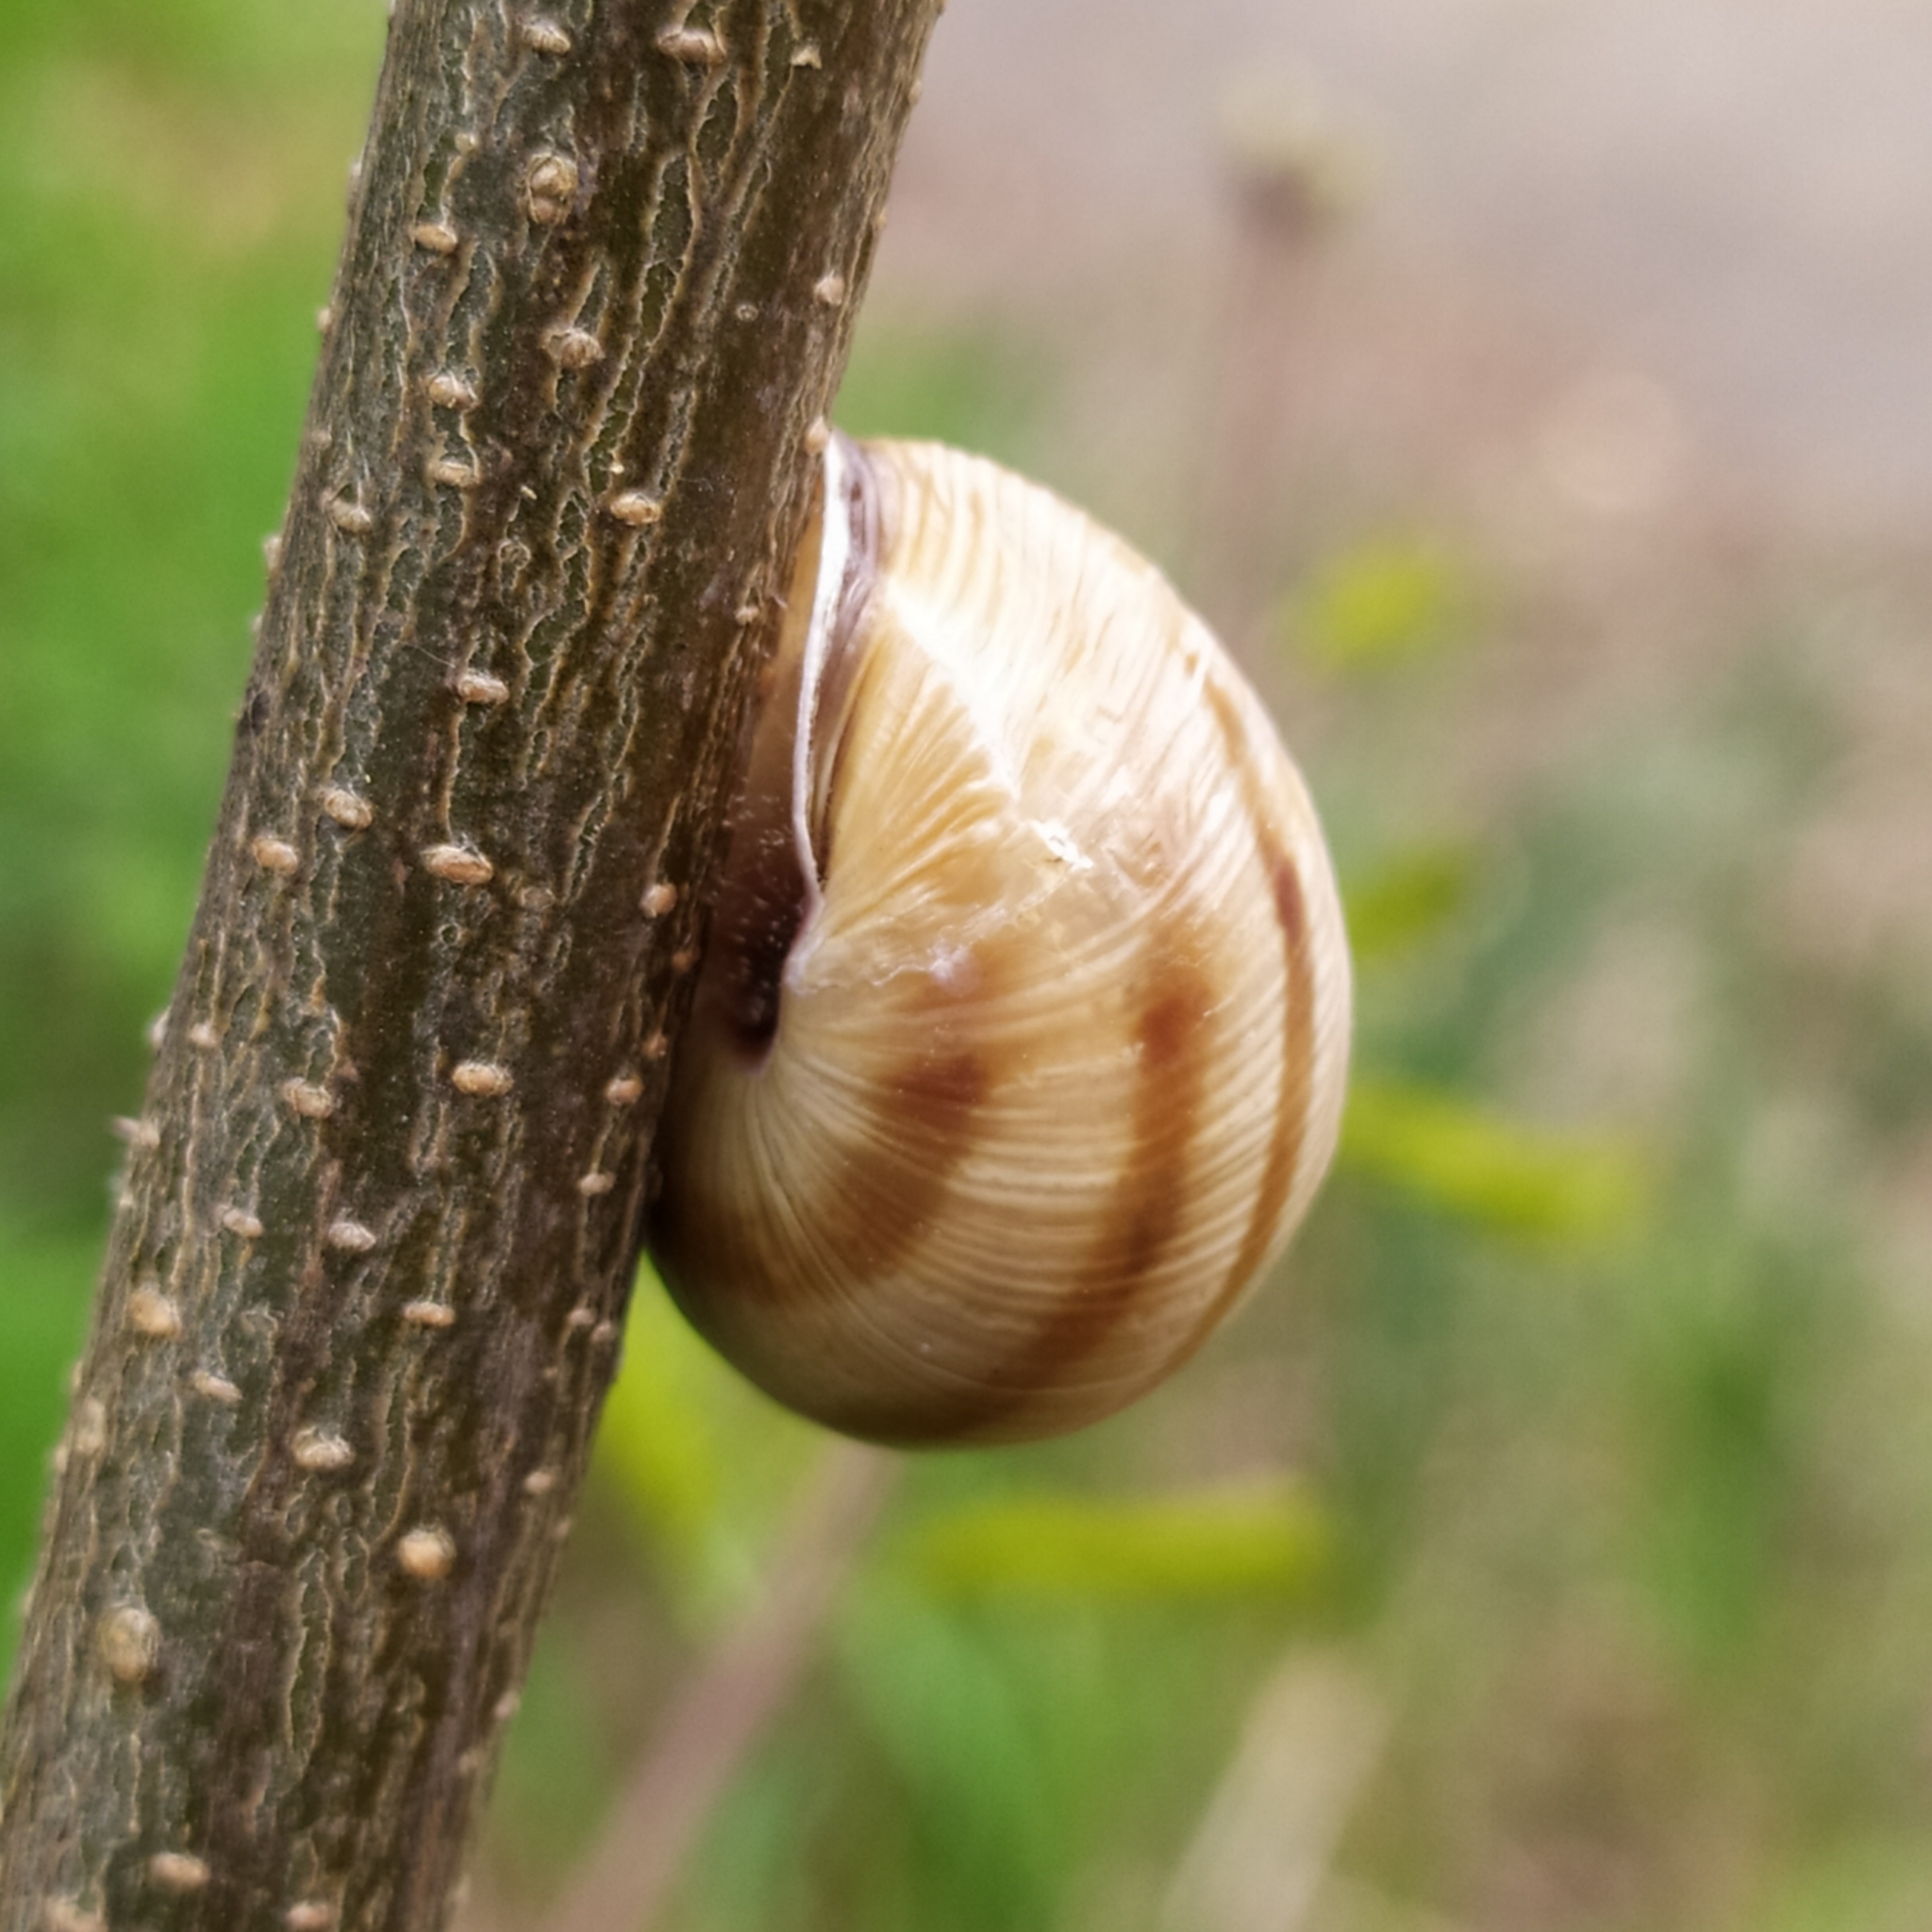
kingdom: Animalia
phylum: Mollusca
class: Gastropoda
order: Stylommatophora
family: Helicidae
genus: Caucasotachea
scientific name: Caucasotachea vindobonensis
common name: European helicid land snail
